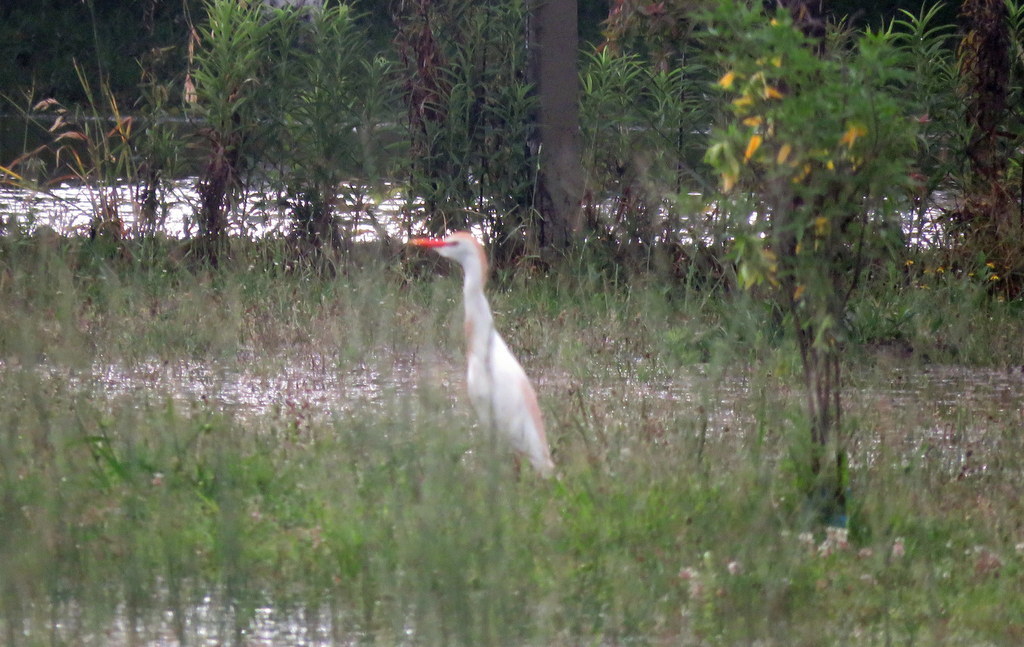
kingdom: Animalia
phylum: Chordata
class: Aves
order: Pelecaniformes
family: Ardeidae
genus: Bubulcus
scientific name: Bubulcus ibis
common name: Cattle egret
